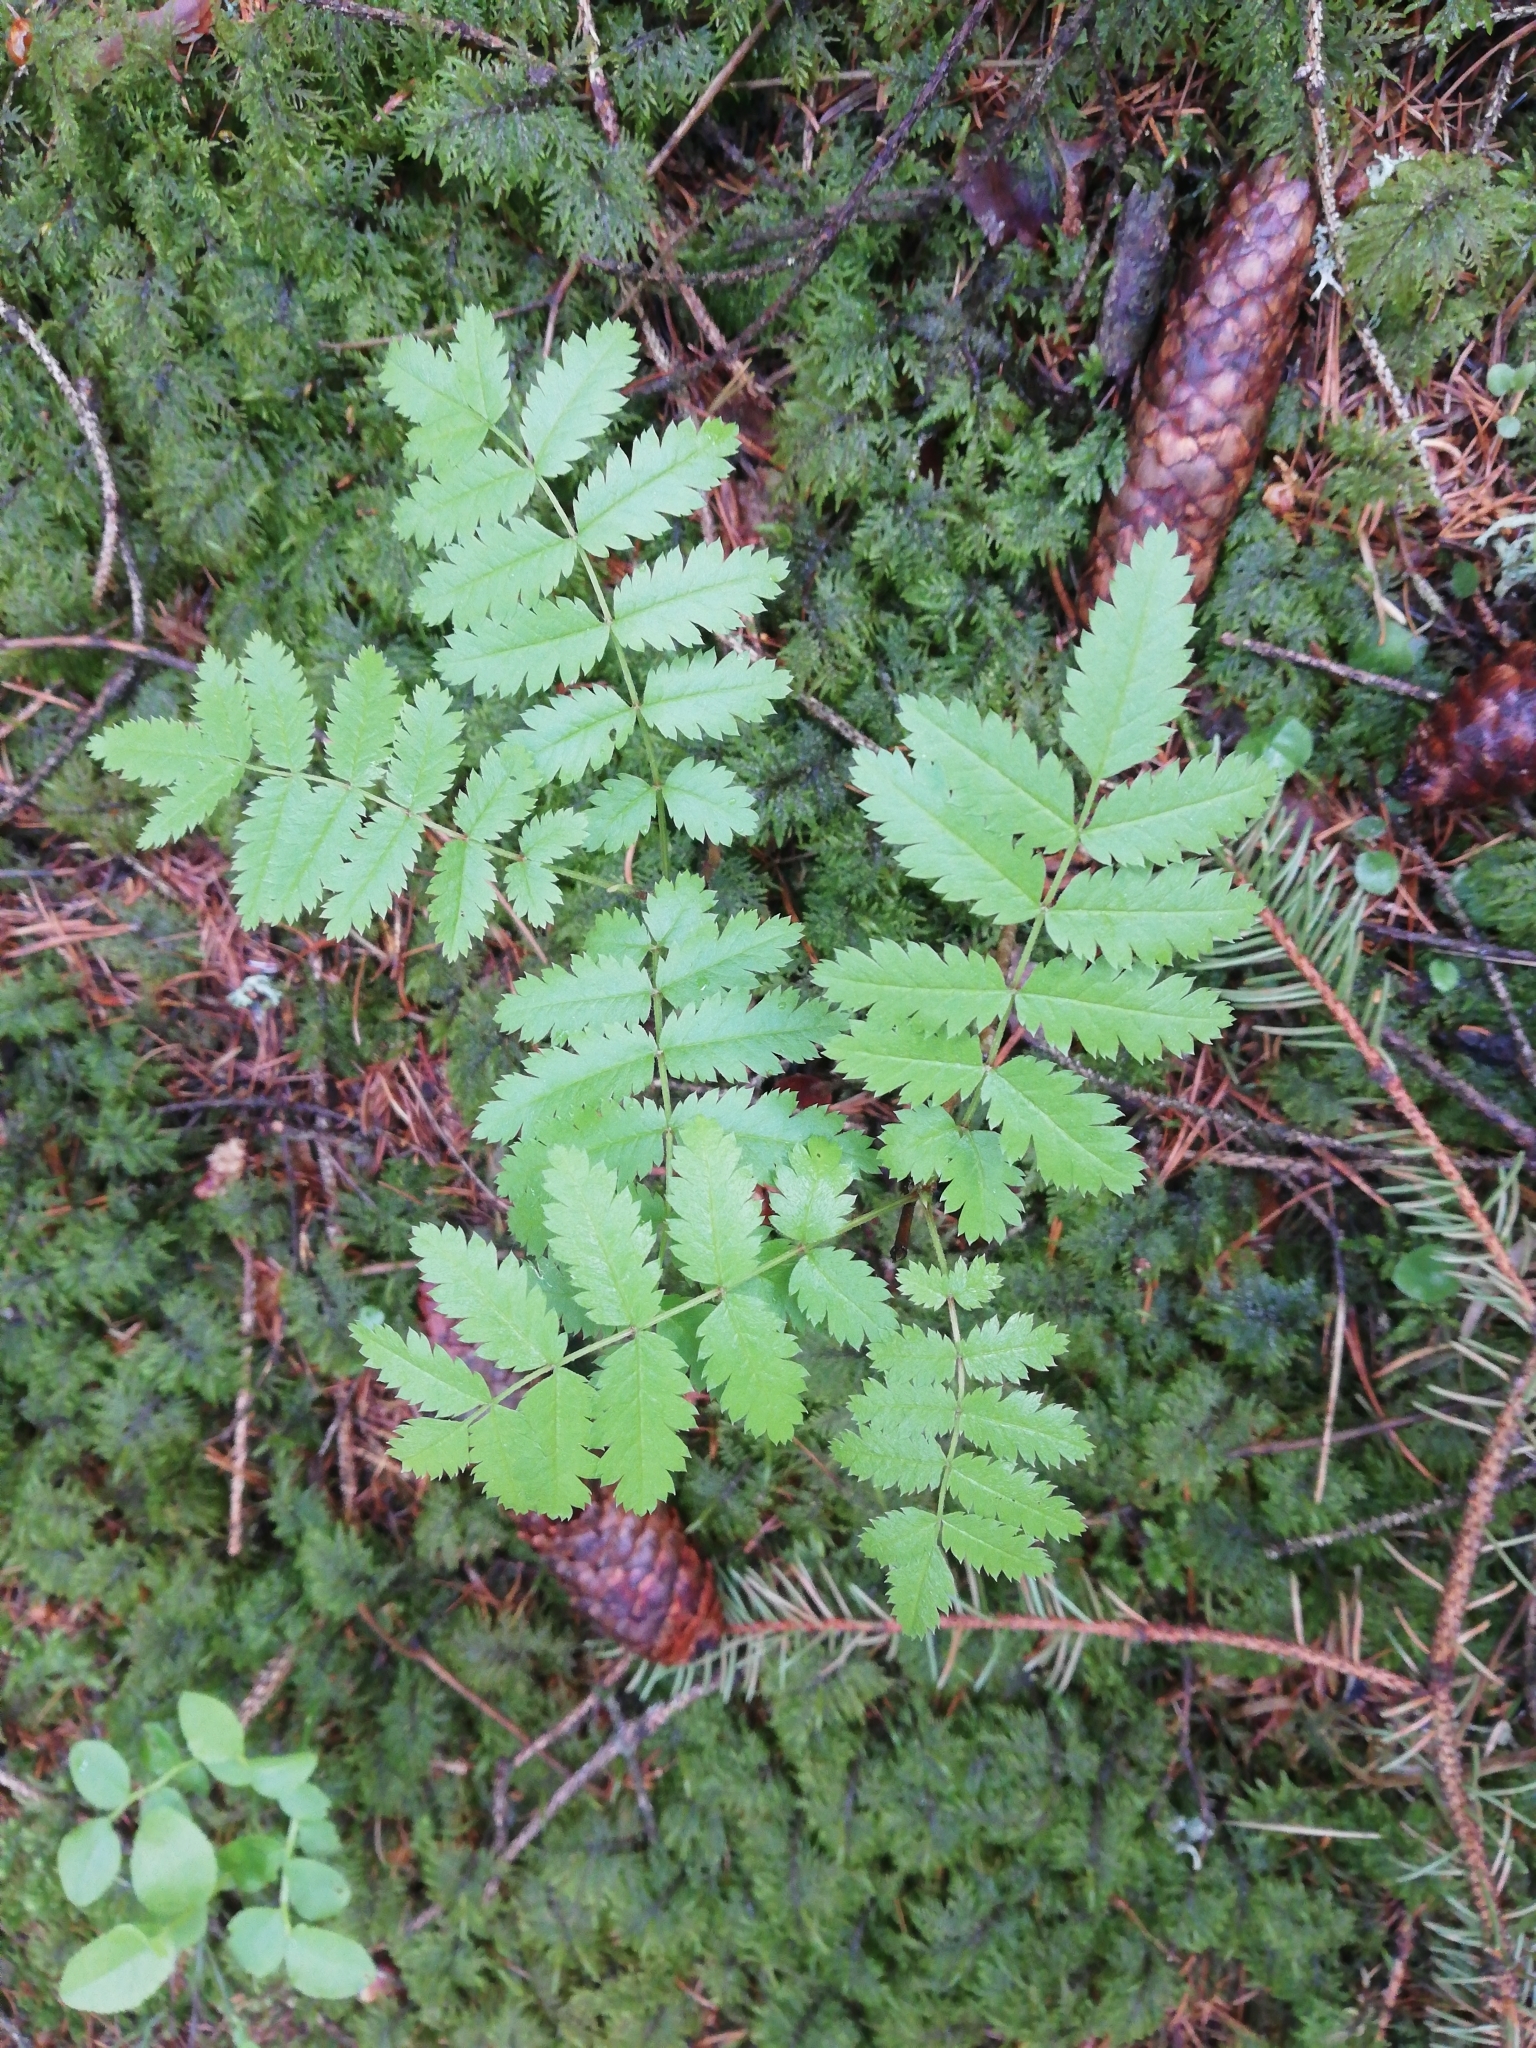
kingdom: Plantae
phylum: Tracheophyta
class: Magnoliopsida
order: Rosales
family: Rosaceae
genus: Sorbus
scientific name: Sorbus aucuparia
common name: Rowan
